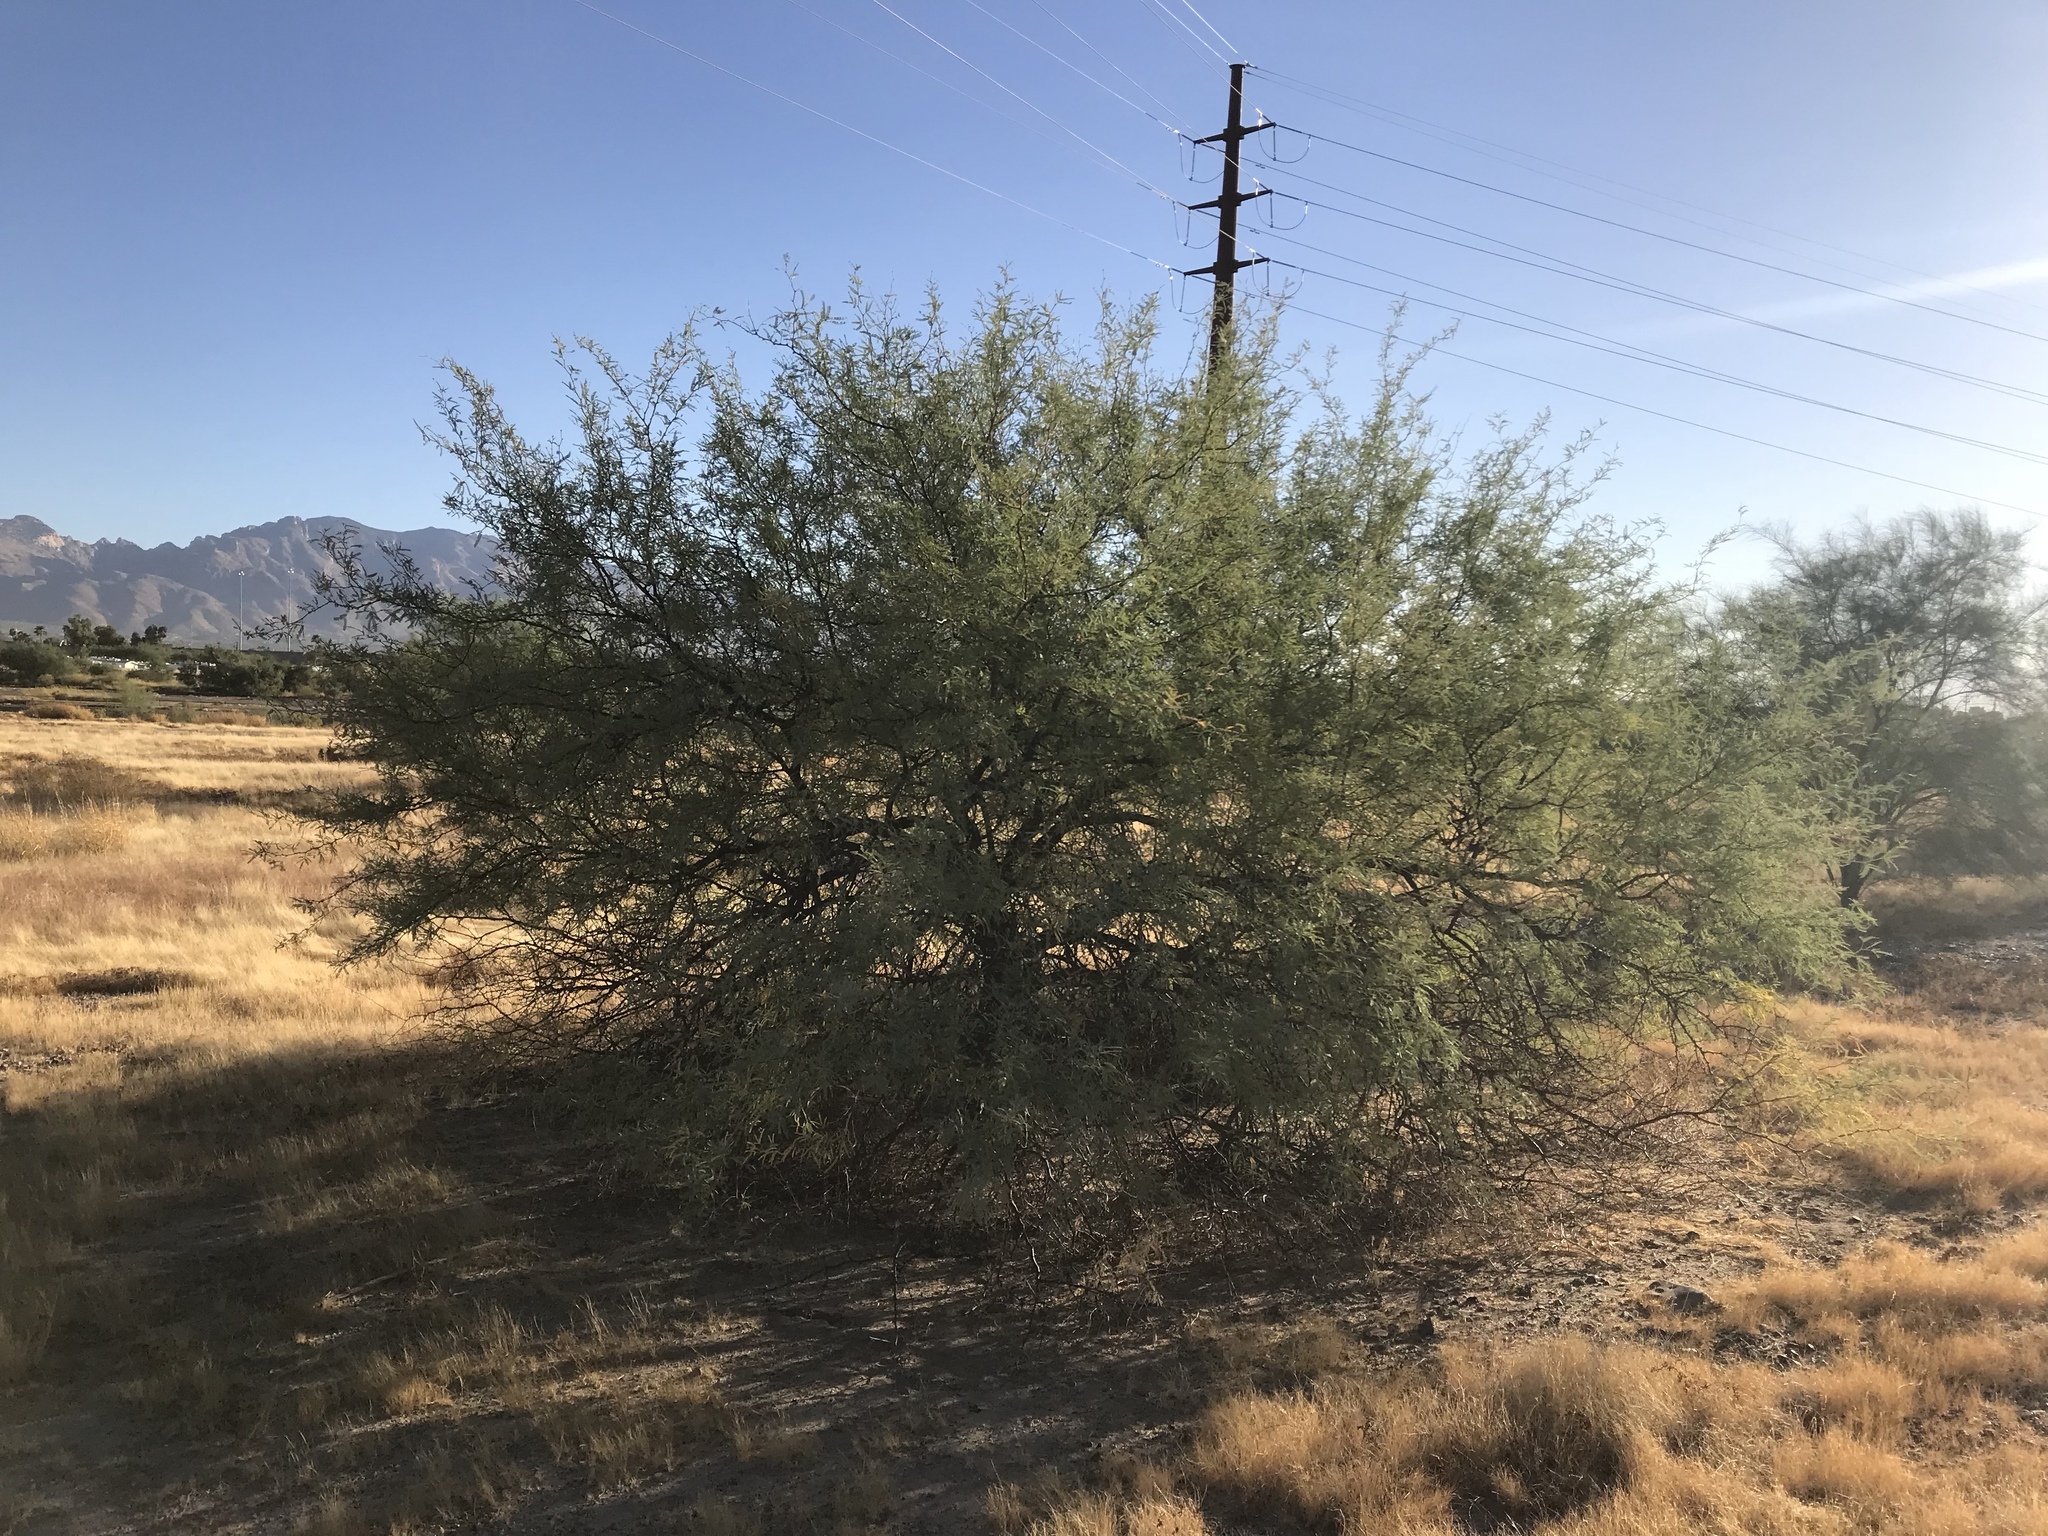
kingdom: Plantae
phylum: Tracheophyta
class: Magnoliopsida
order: Fabales
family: Fabaceae
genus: Prosopis
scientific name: Prosopis velutina
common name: Velvet mesquite
